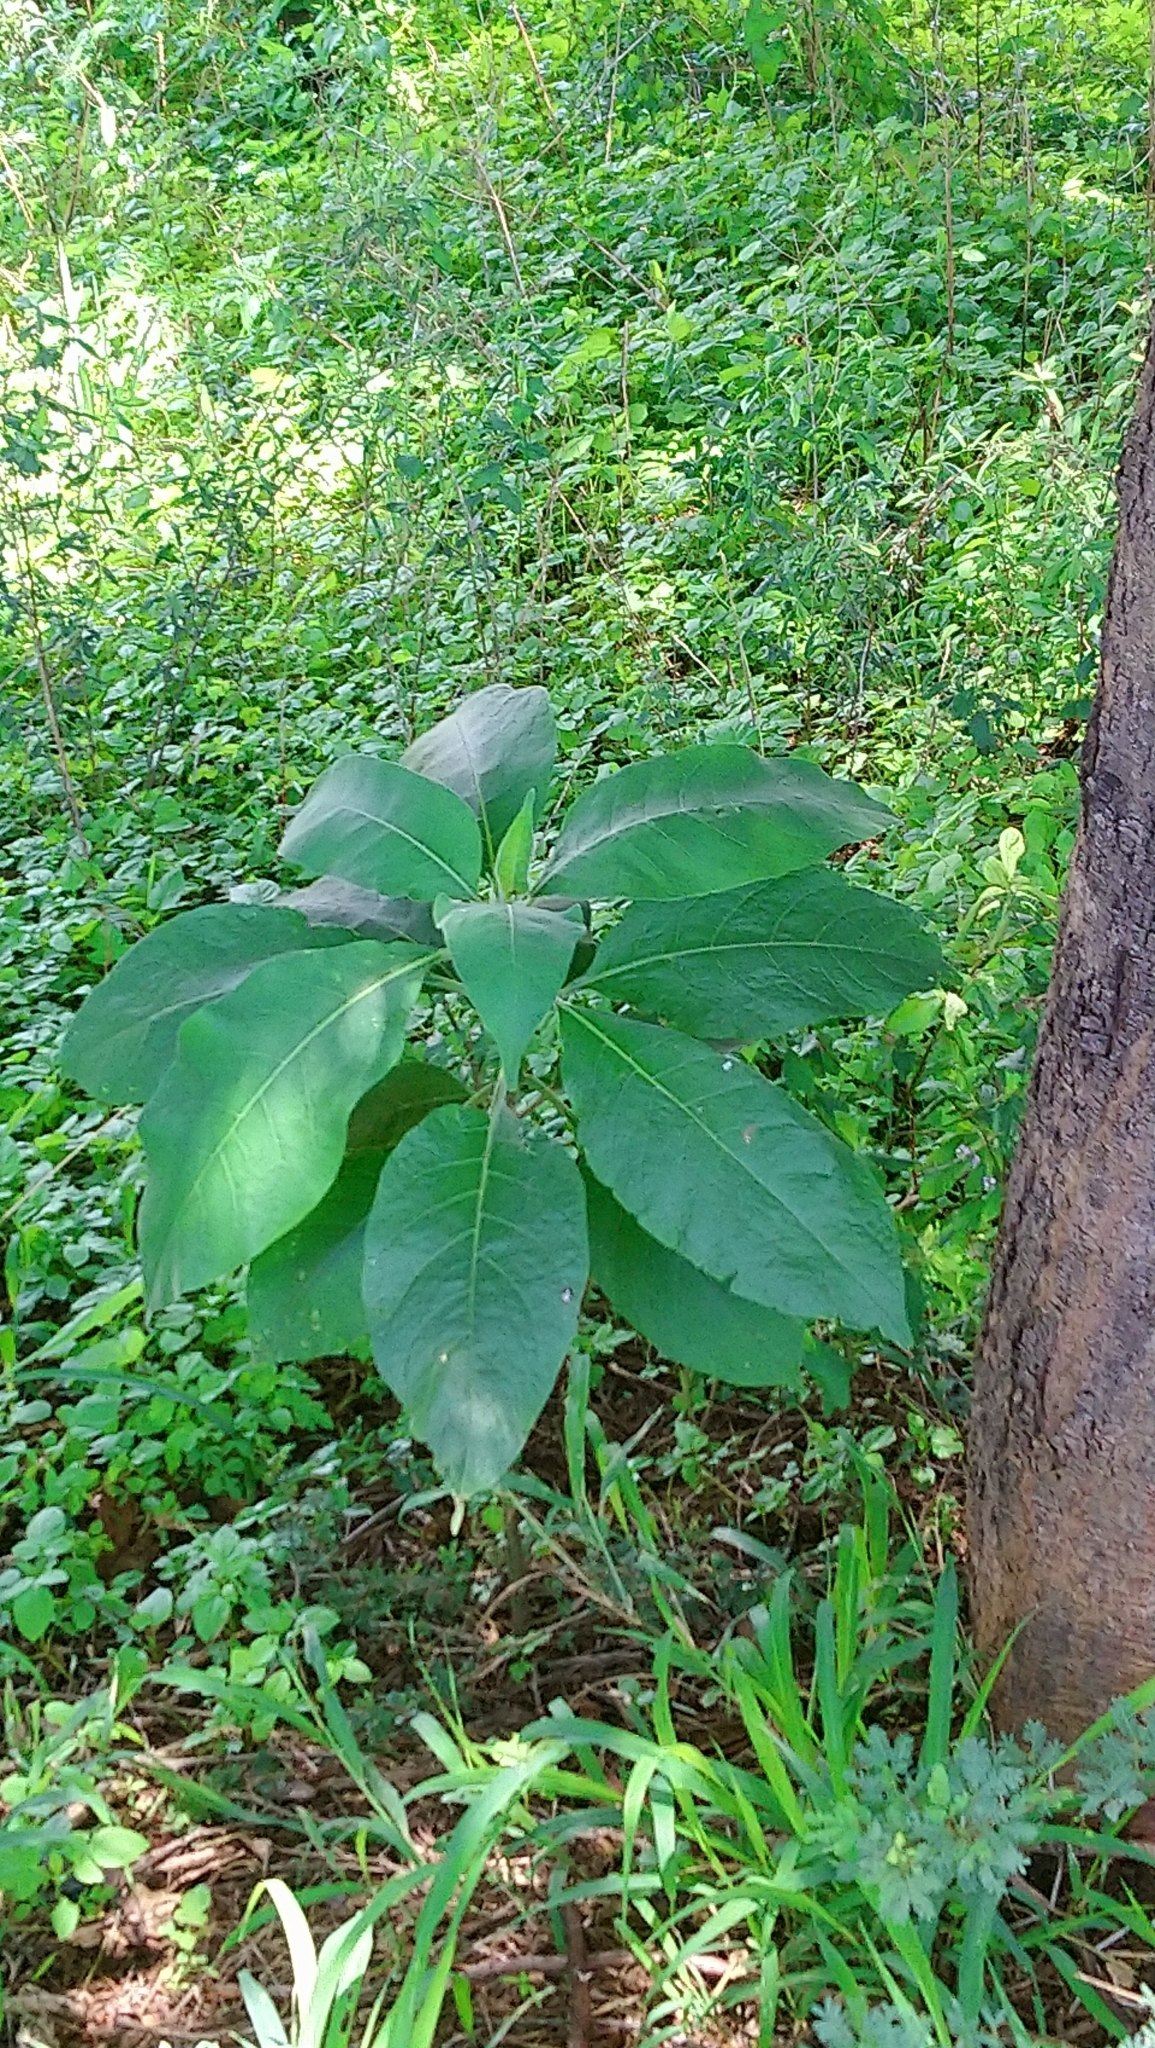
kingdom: Plantae
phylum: Tracheophyta
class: Magnoliopsida
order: Solanales
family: Solanaceae
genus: Solanum
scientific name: Solanum mauritianum
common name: Earleaf nightshade
